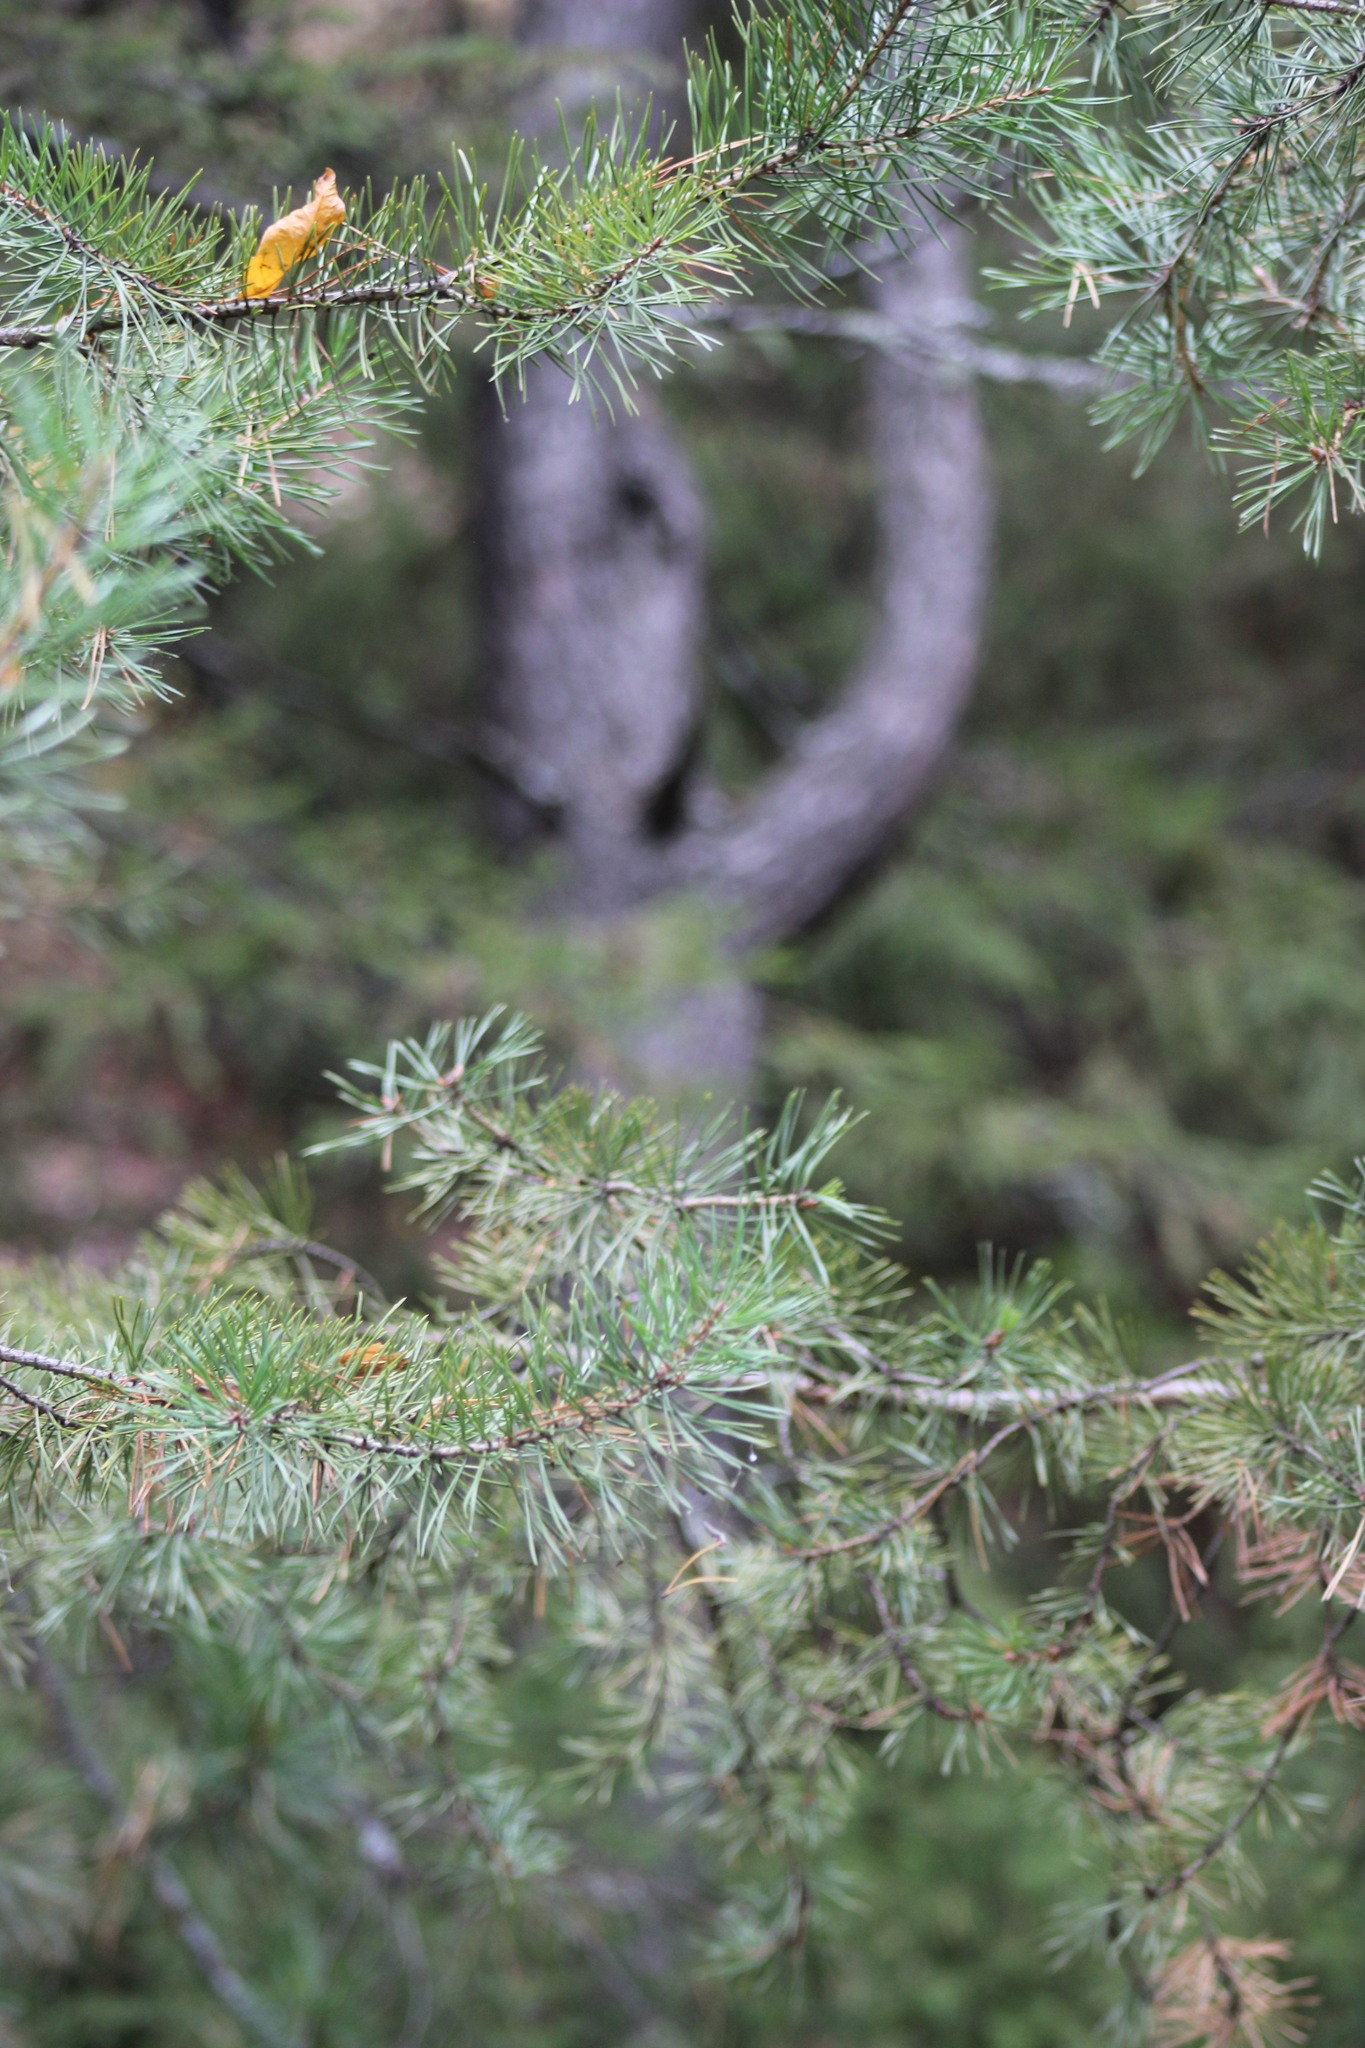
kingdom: Plantae
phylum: Tracheophyta
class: Pinopsida
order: Pinales
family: Pinaceae
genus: Pinus
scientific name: Pinus sylvestris
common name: Scots pine
